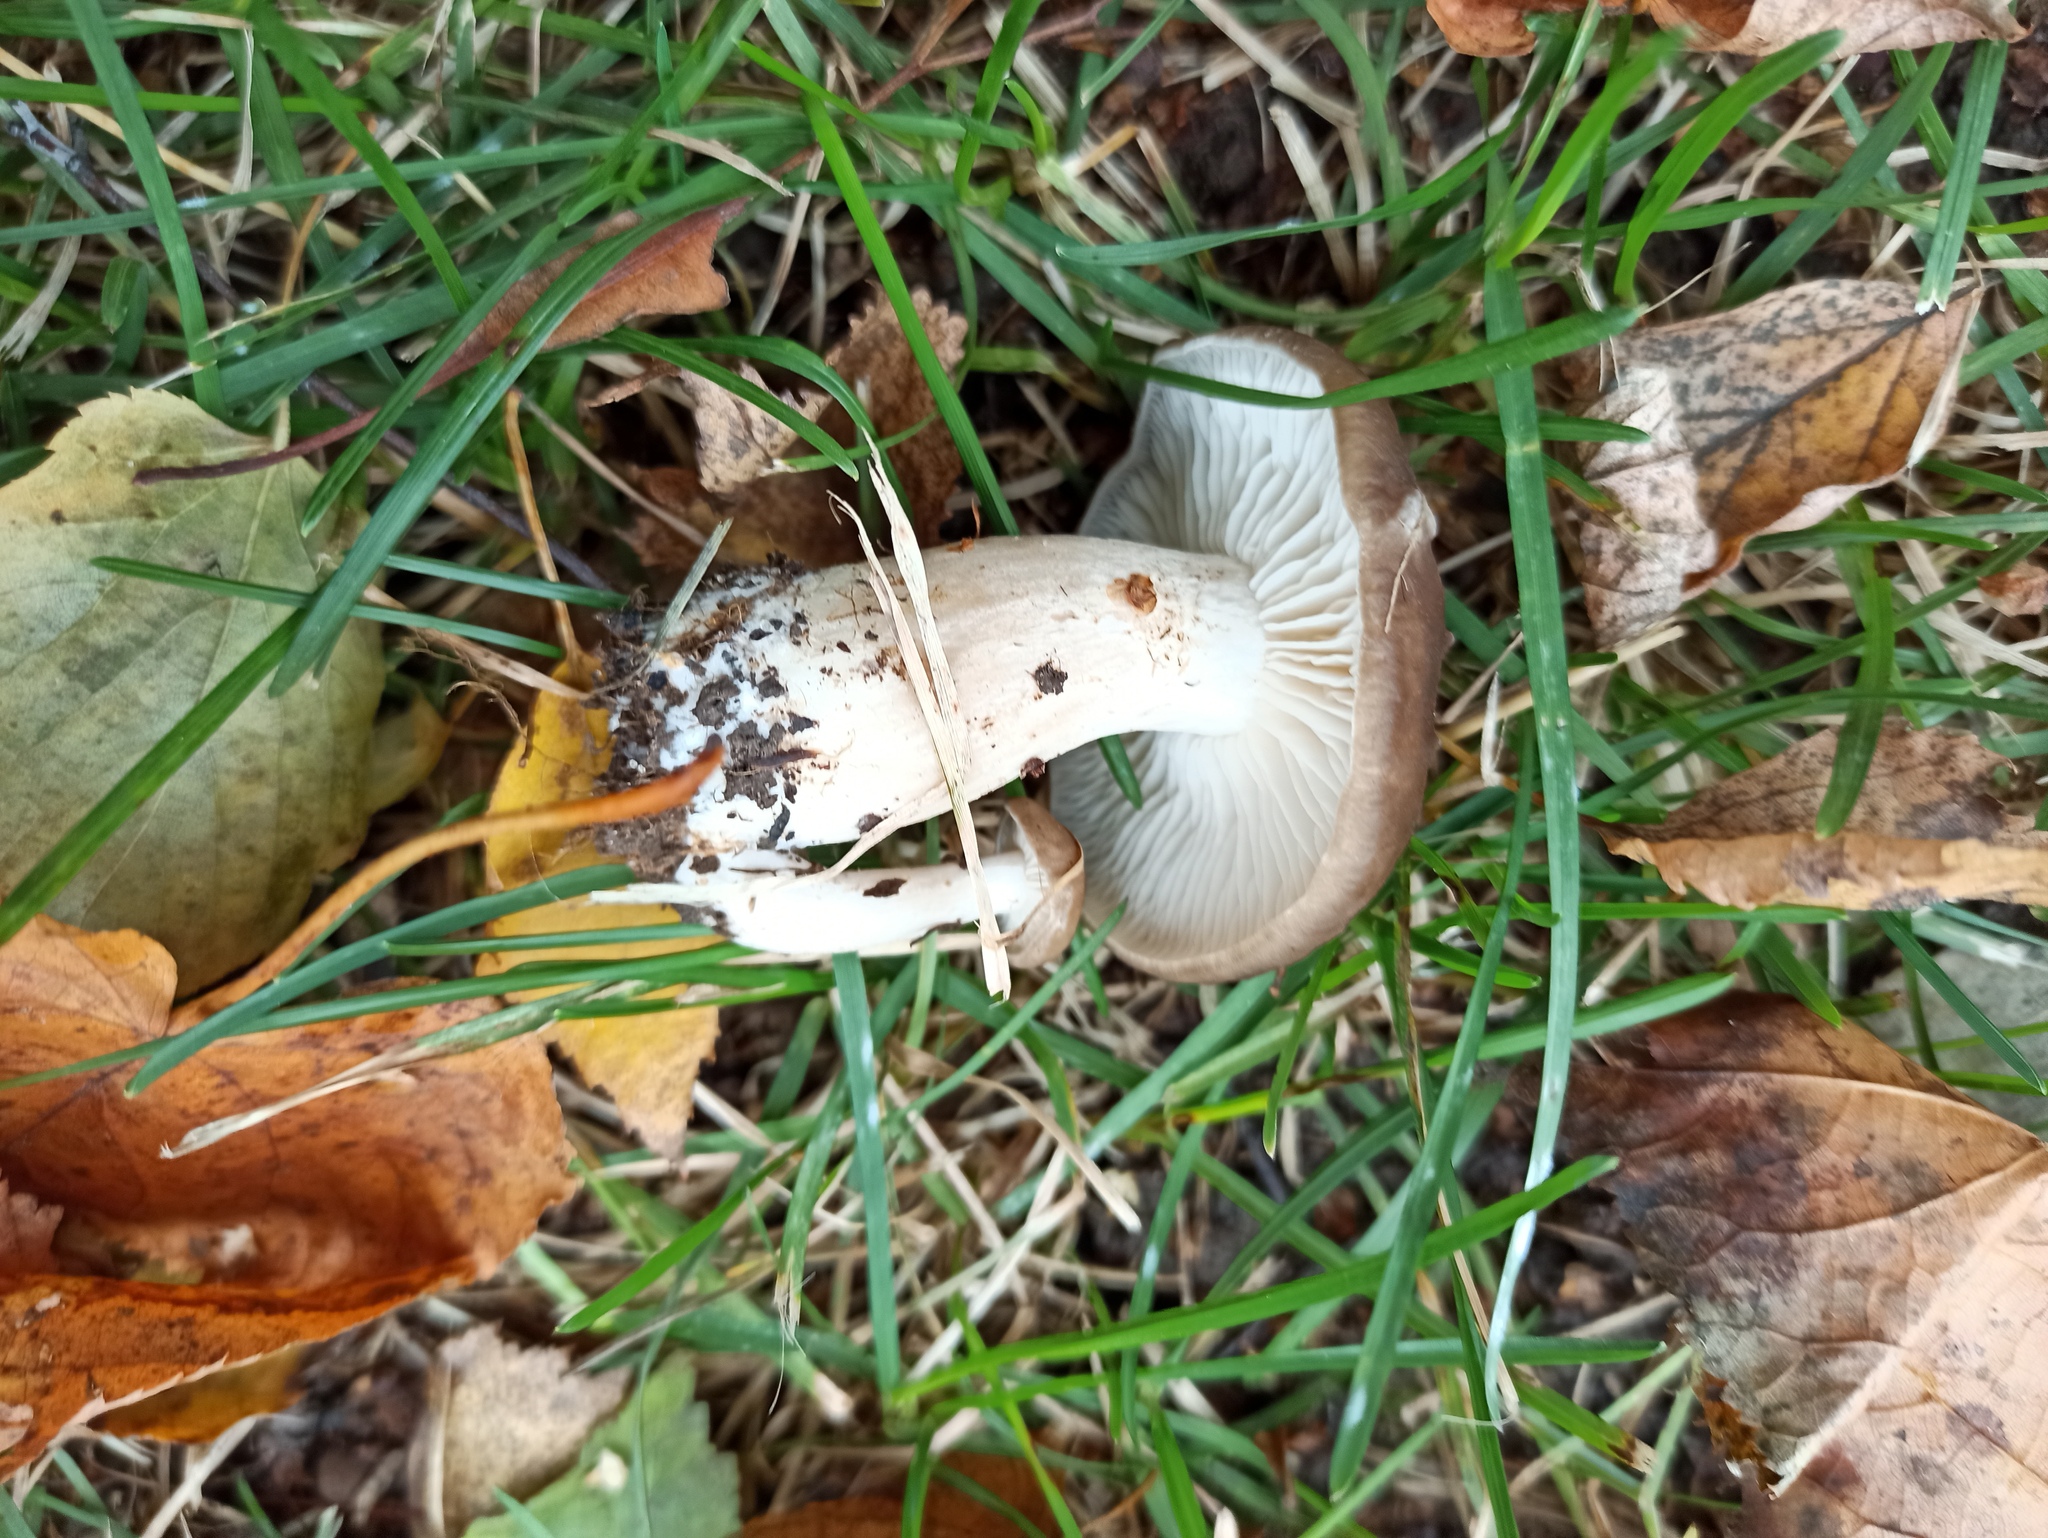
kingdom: Fungi
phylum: Basidiomycota
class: Agaricomycetes
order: Agaricales
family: Lyophyllaceae
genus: Lyophyllum
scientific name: Lyophyllum decastes
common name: Clustered domecap
